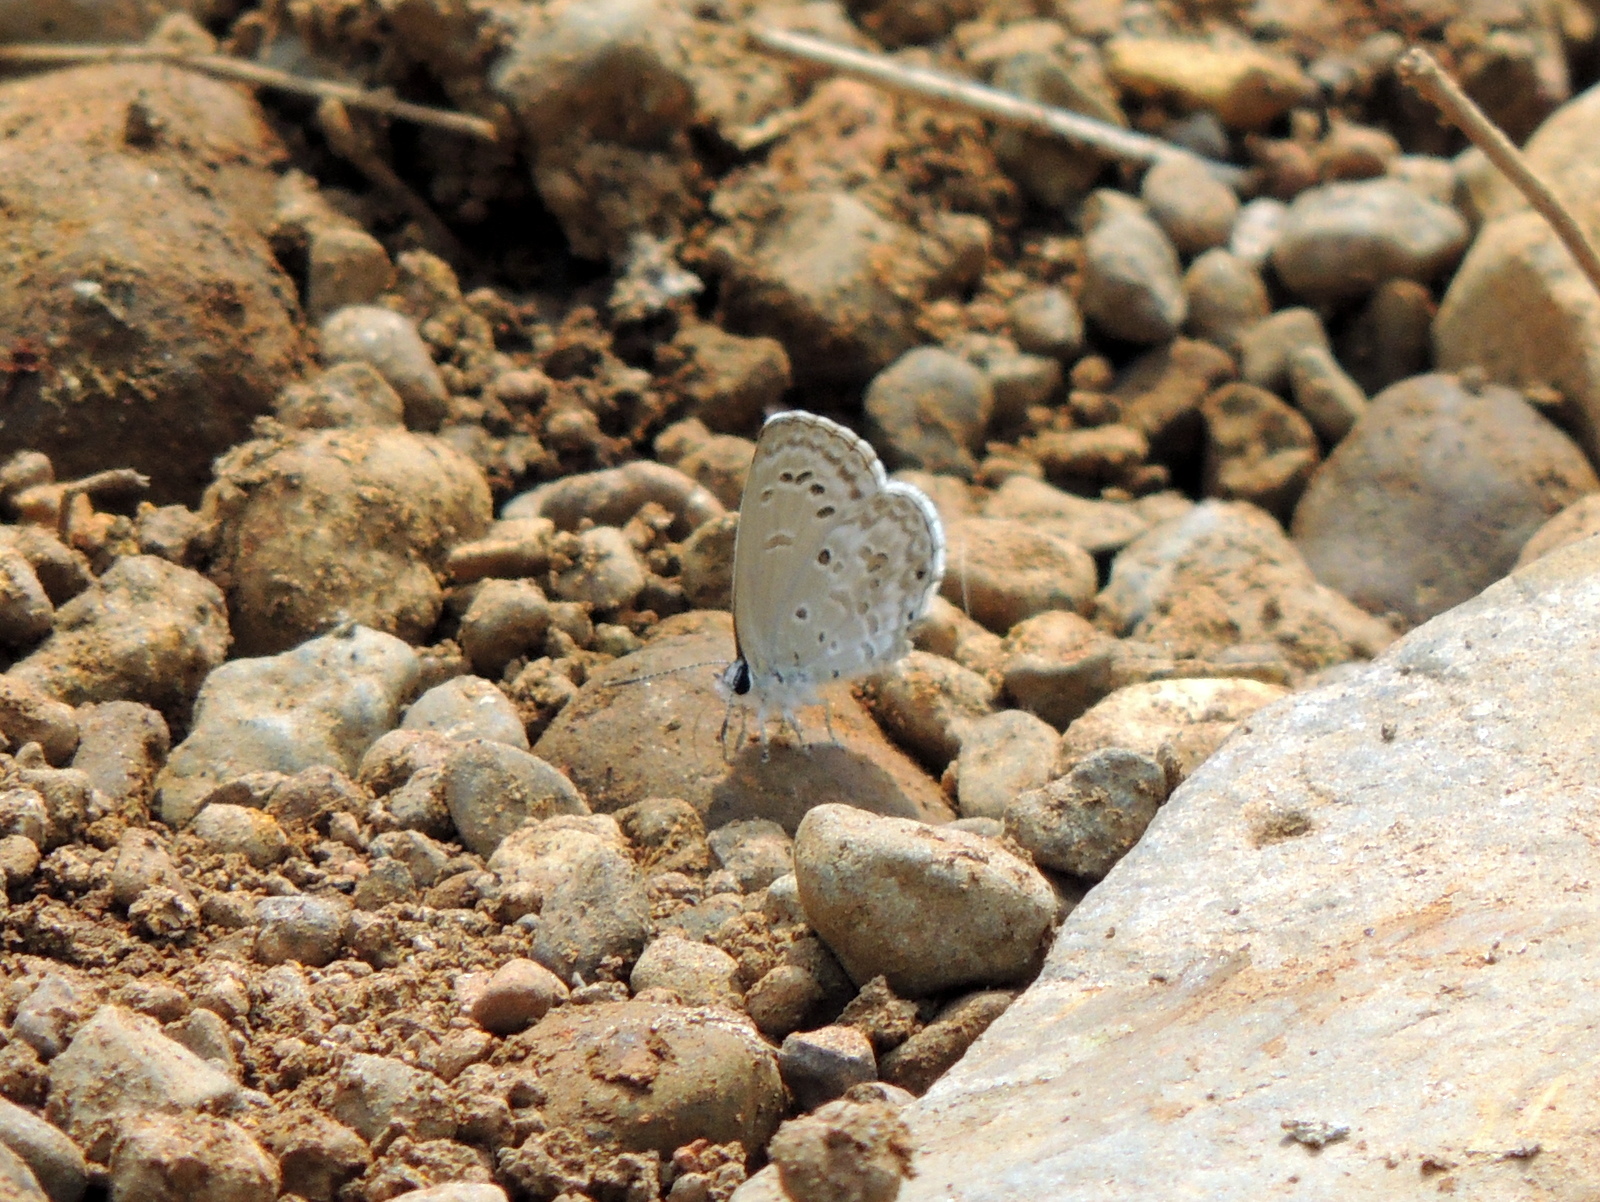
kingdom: Animalia
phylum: Arthropoda
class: Insecta
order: Lepidoptera
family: Lycaenidae
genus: Chilades
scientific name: Chilades laius
